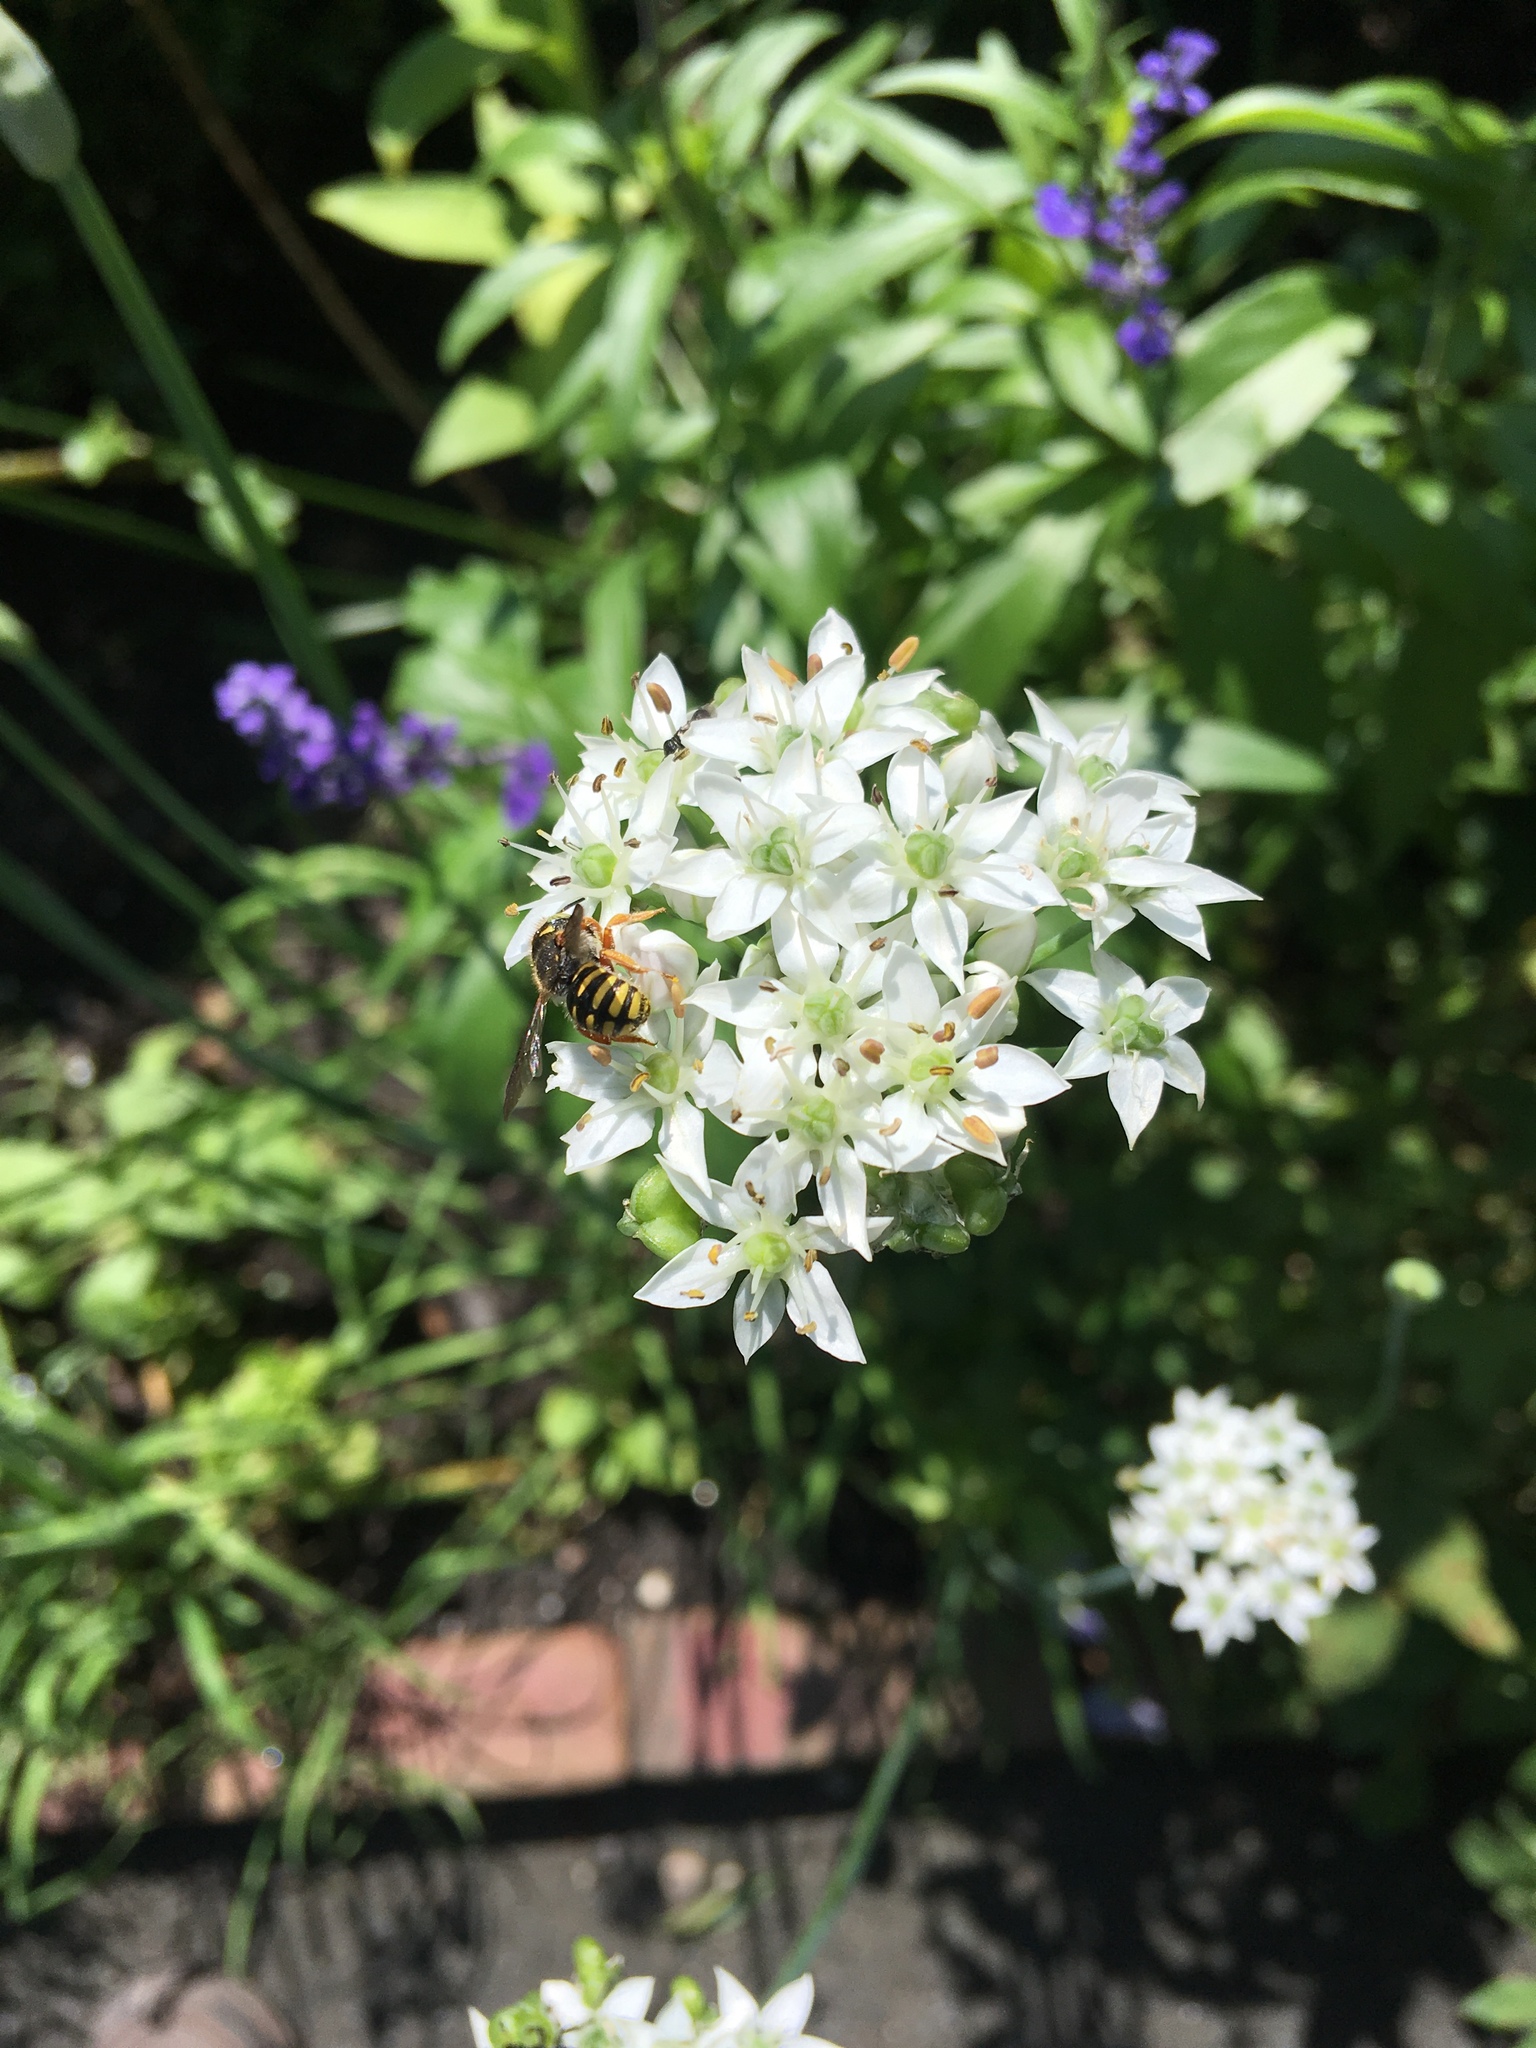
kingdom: Animalia
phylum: Arthropoda
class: Insecta
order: Hymenoptera
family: Megachilidae
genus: Anthidium
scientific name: Anthidium oblongatum
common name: Oblong wool carder bee
